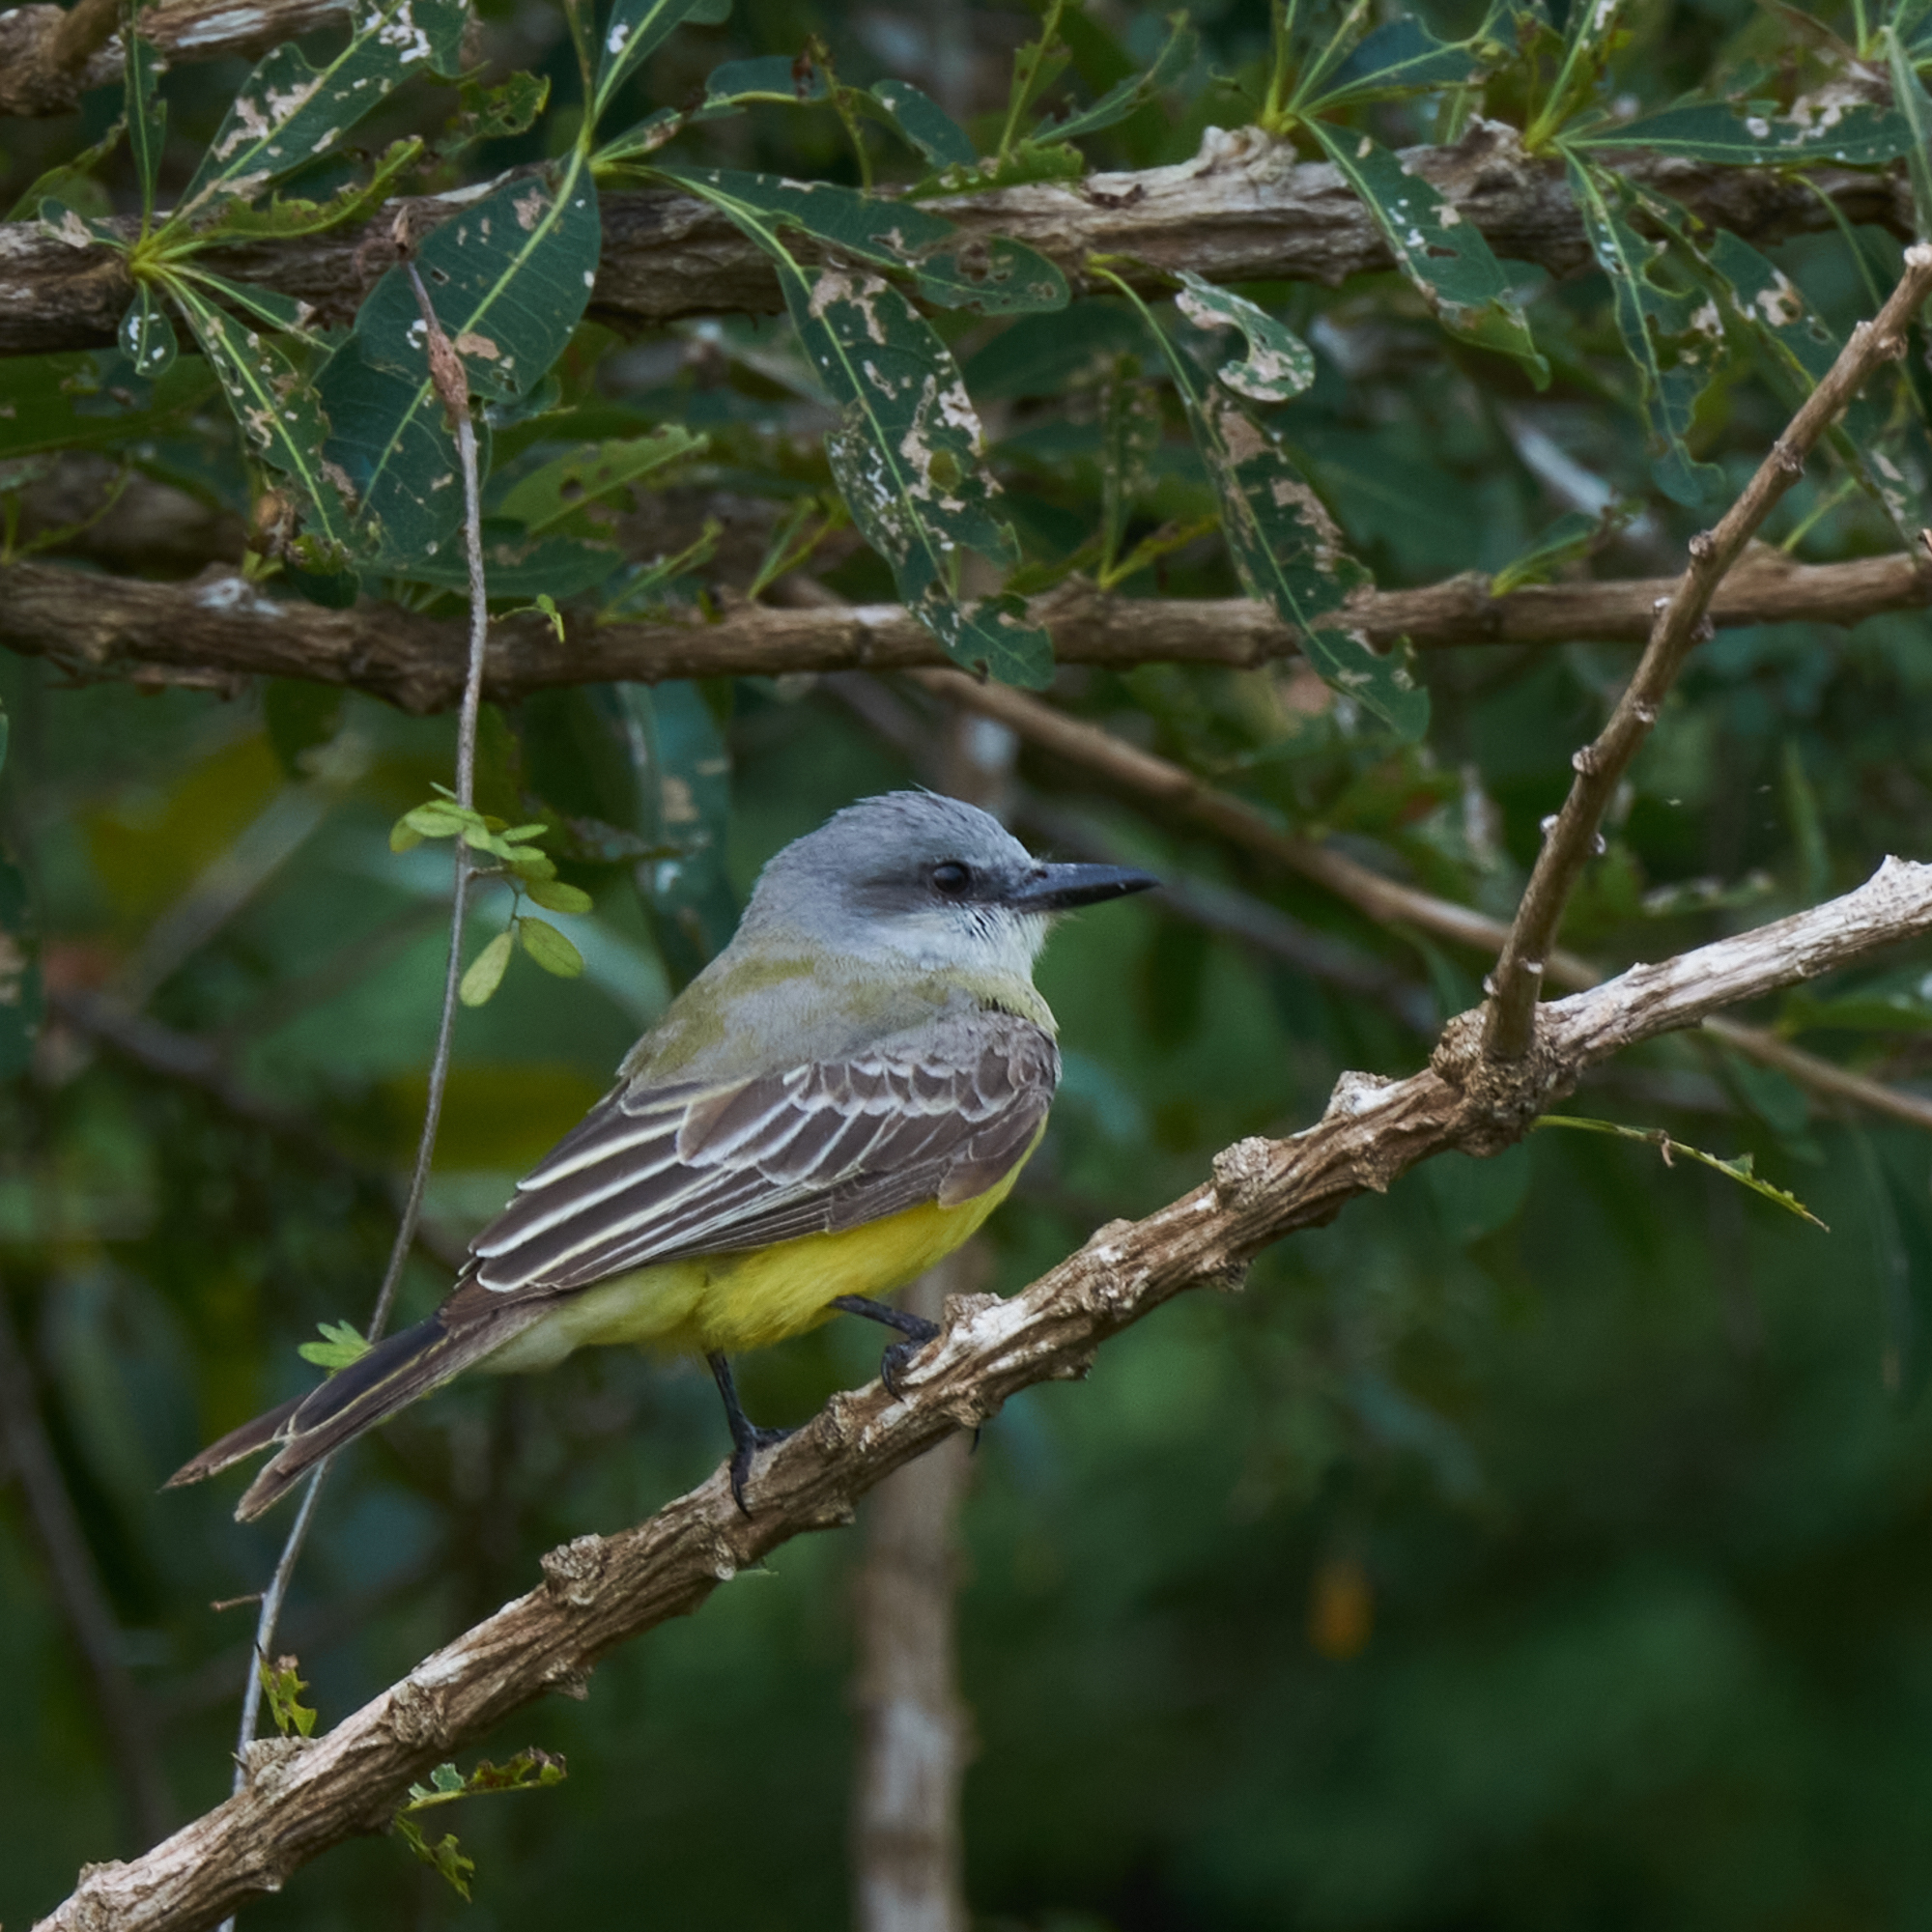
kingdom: Animalia
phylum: Chordata
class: Aves
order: Passeriformes
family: Tyrannidae
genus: Tyrannus
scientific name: Tyrannus melancholicus
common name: Tropical kingbird
